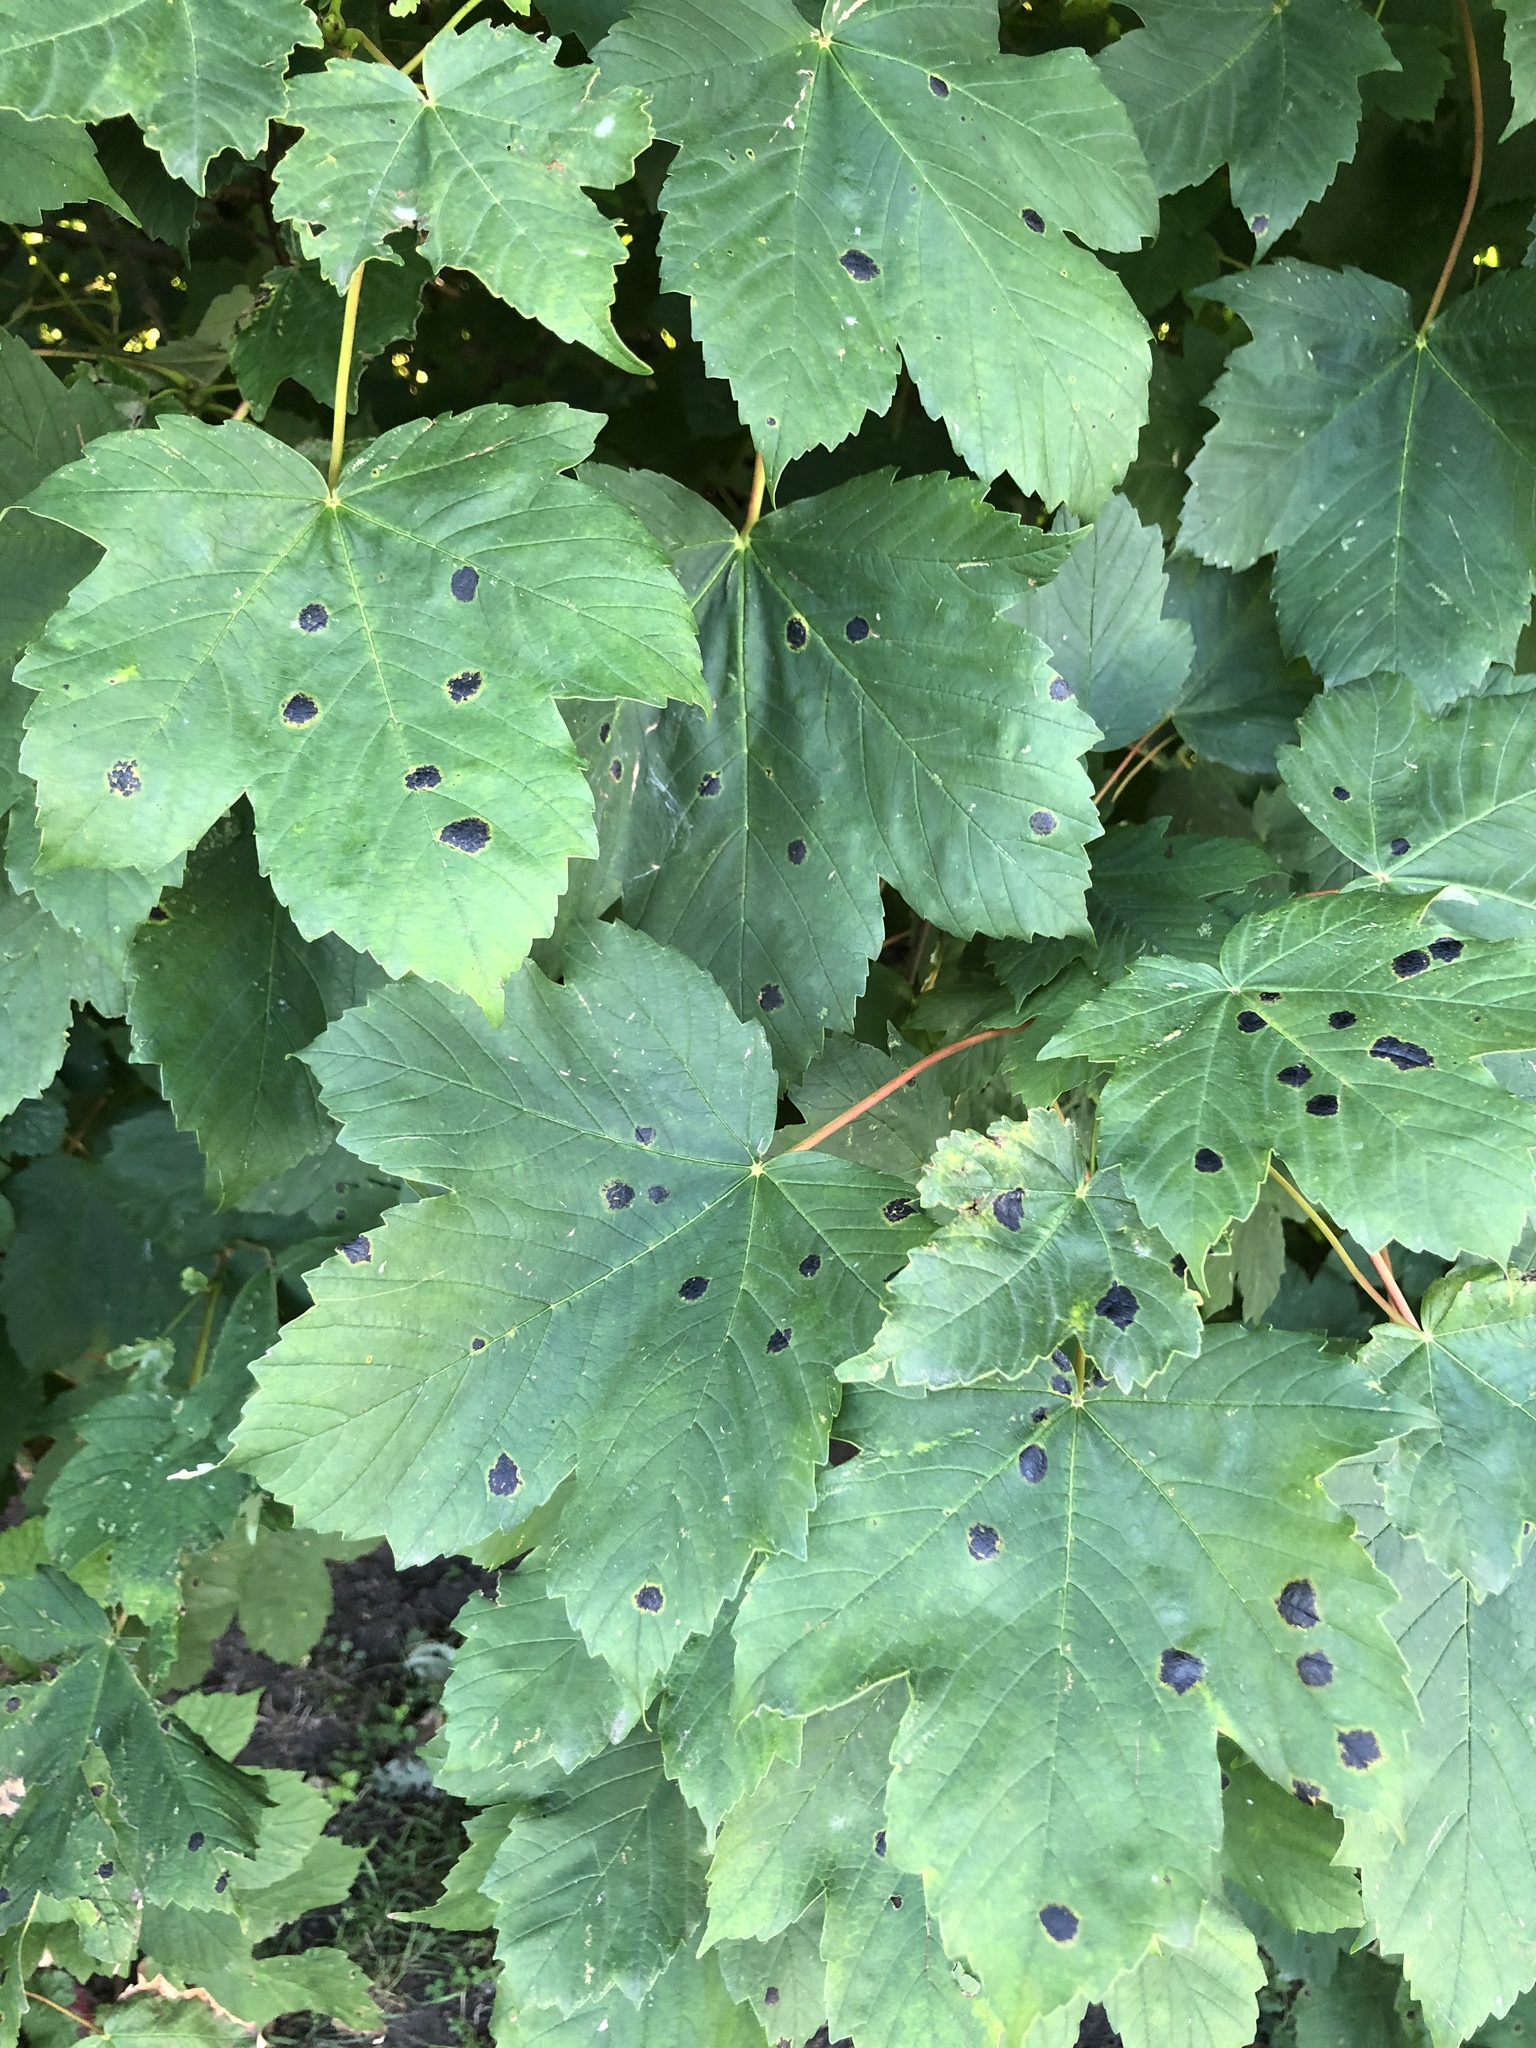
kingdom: Fungi
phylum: Ascomycota
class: Leotiomycetes
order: Rhytismatales
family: Rhytismataceae
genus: Rhytisma
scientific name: Rhytisma acerinum
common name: European tar spot
